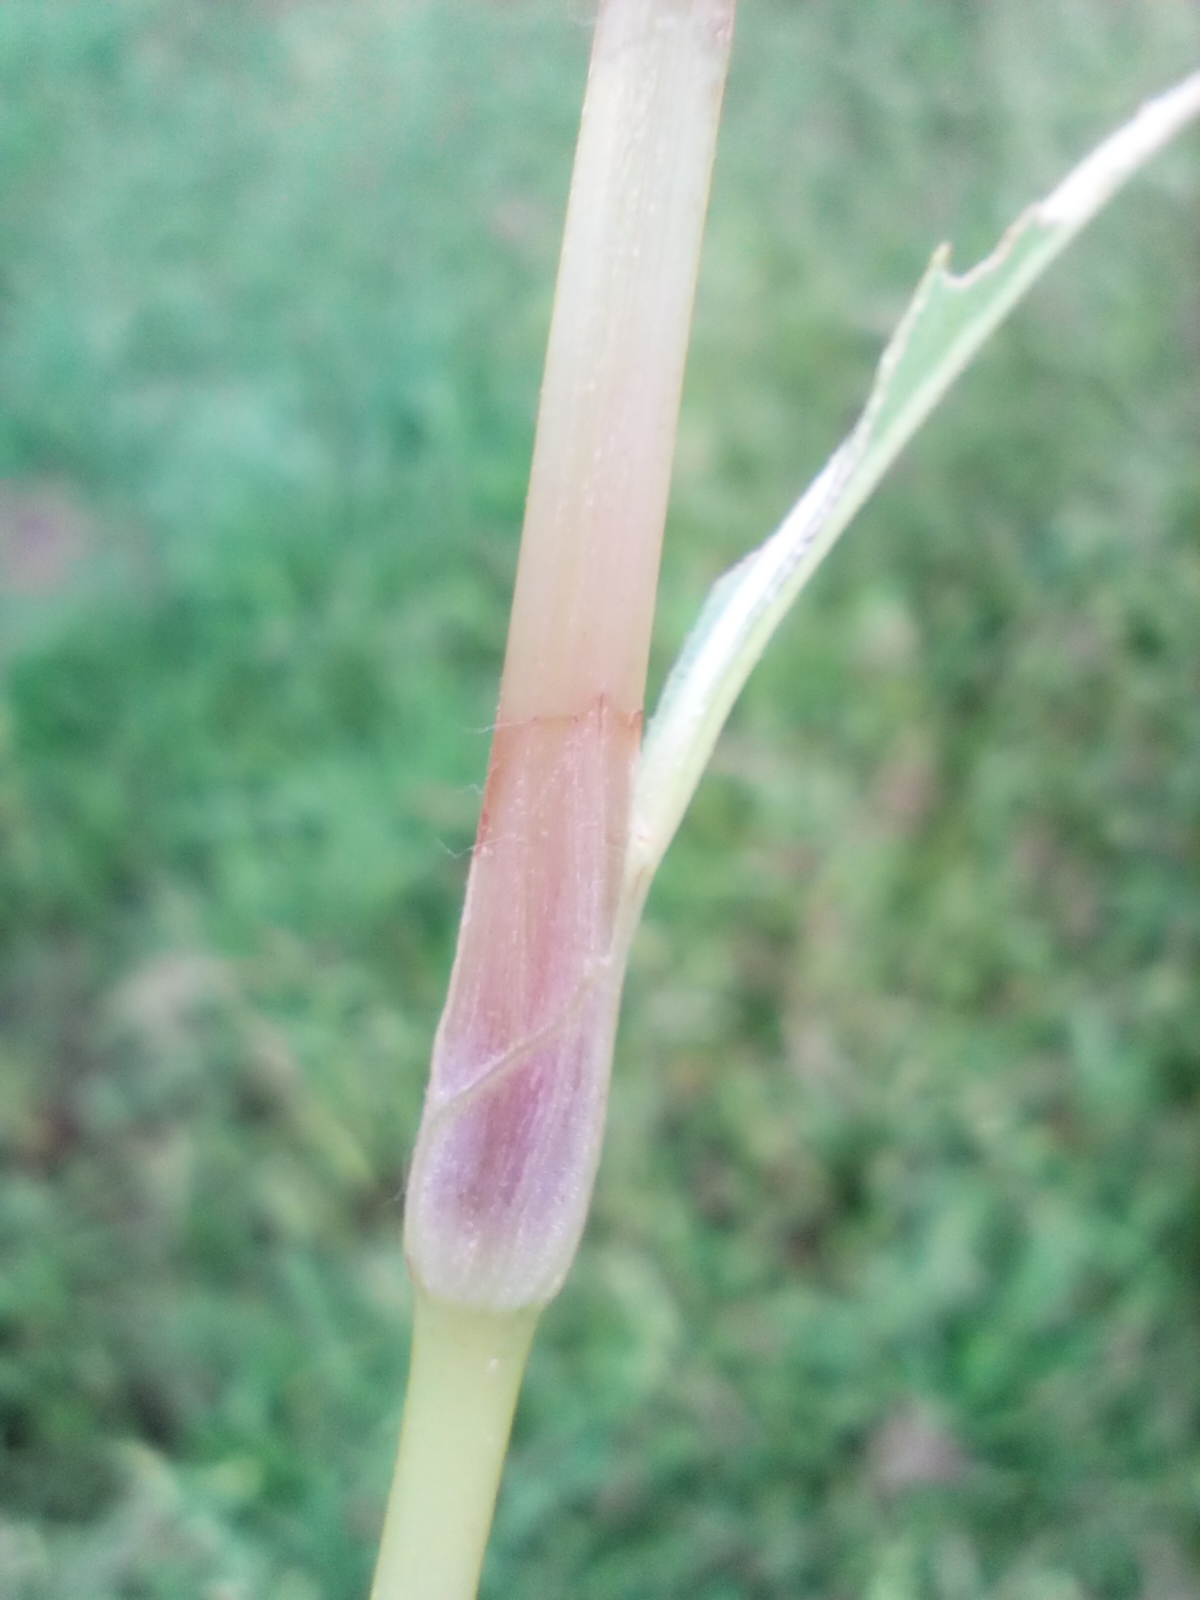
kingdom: Plantae
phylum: Tracheophyta
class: Magnoliopsida
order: Caryophyllales
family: Polygonaceae
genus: Persicaria
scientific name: Persicaria lapathifolia
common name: Curlytop knotweed
